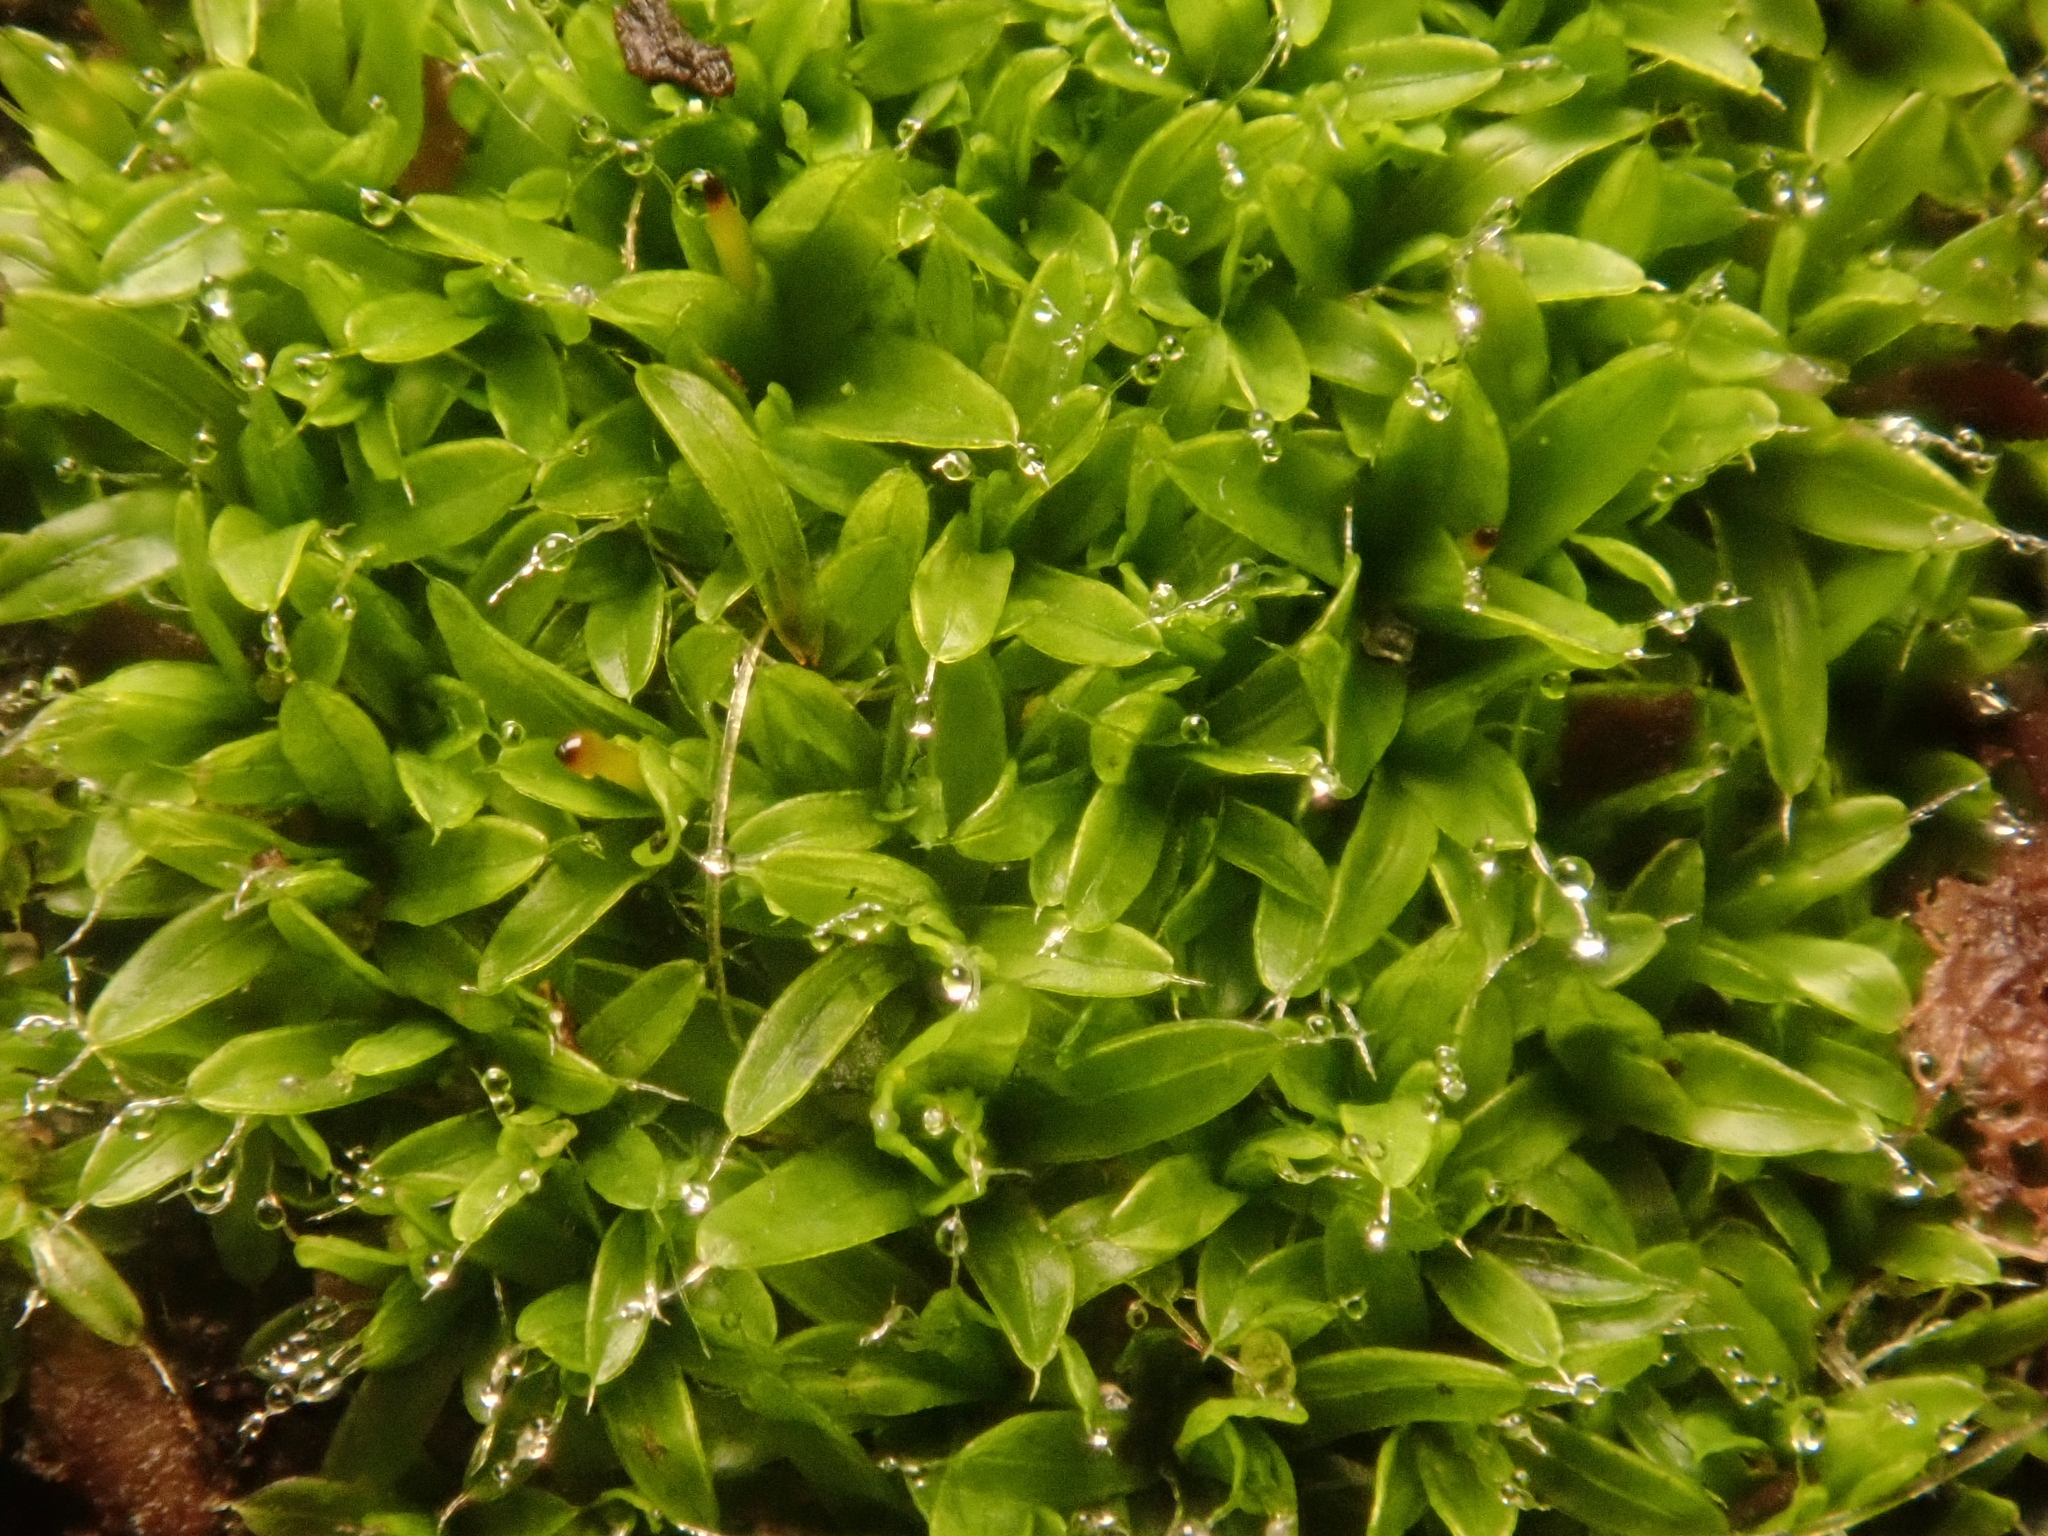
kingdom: Plantae
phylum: Bryophyta
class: Bryopsida
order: Pottiales
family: Pottiaceae
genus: Tortula
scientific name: Tortula muralis
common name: Wall screw-moss
